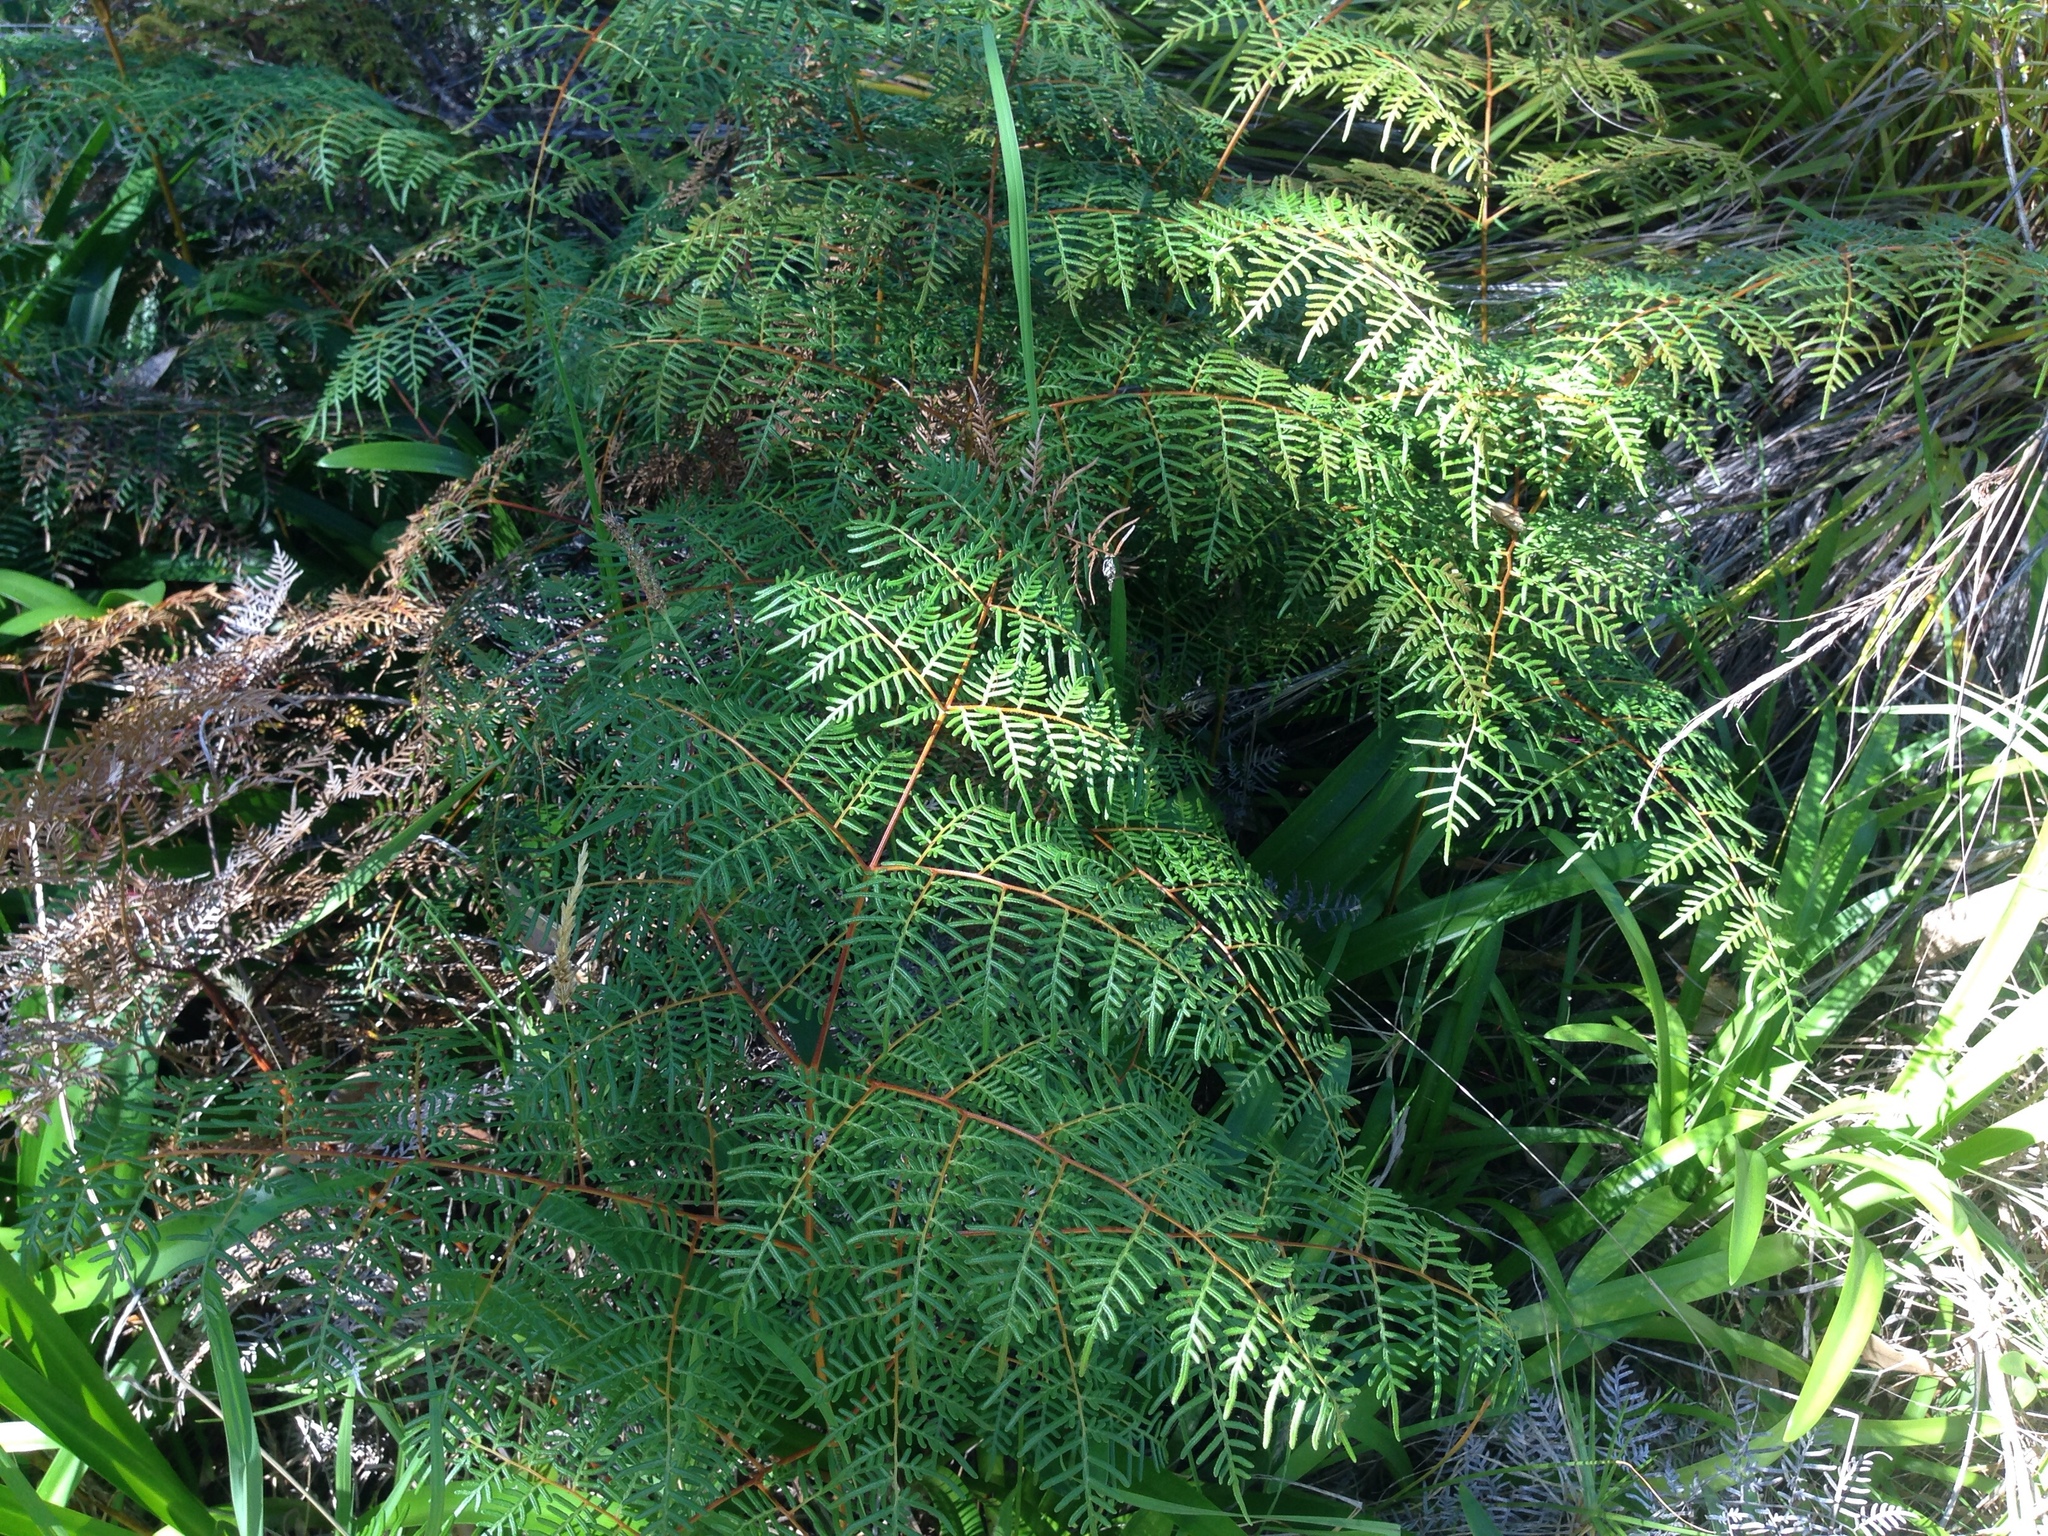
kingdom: Plantae
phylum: Tracheophyta
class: Polypodiopsida
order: Polypodiales
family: Dennstaedtiaceae
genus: Pteridium
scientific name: Pteridium esculentum
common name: Bracken fern
